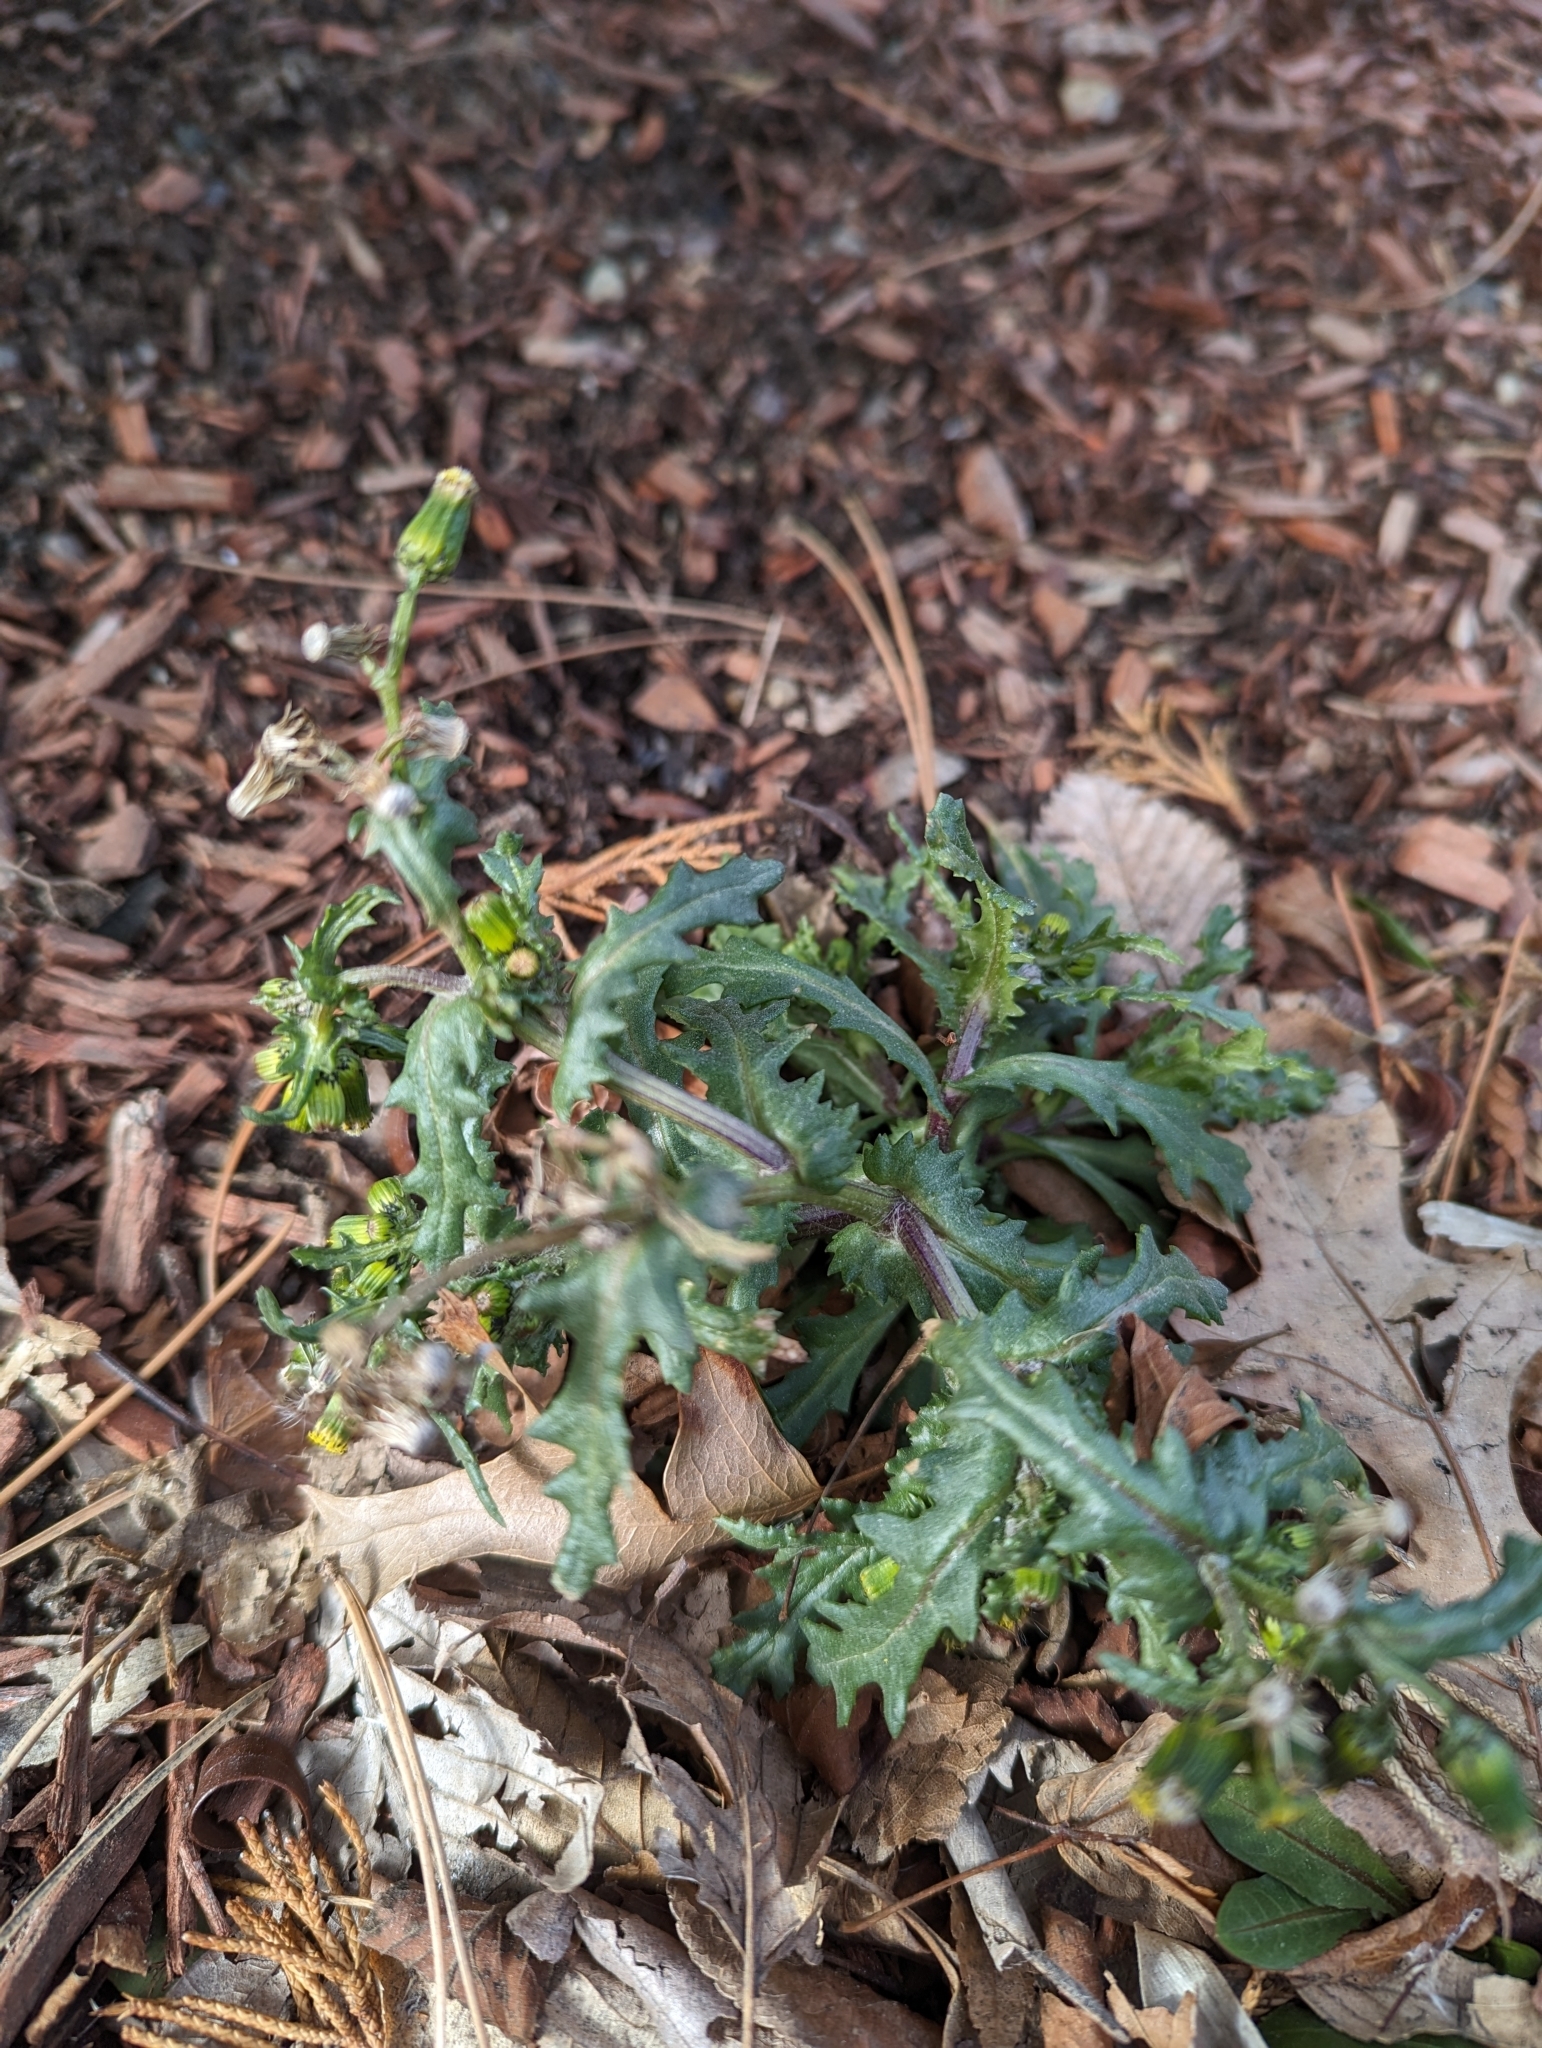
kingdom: Plantae
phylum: Tracheophyta
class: Magnoliopsida
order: Asterales
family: Asteraceae
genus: Senecio
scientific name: Senecio vulgaris
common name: Old-man-in-the-spring
